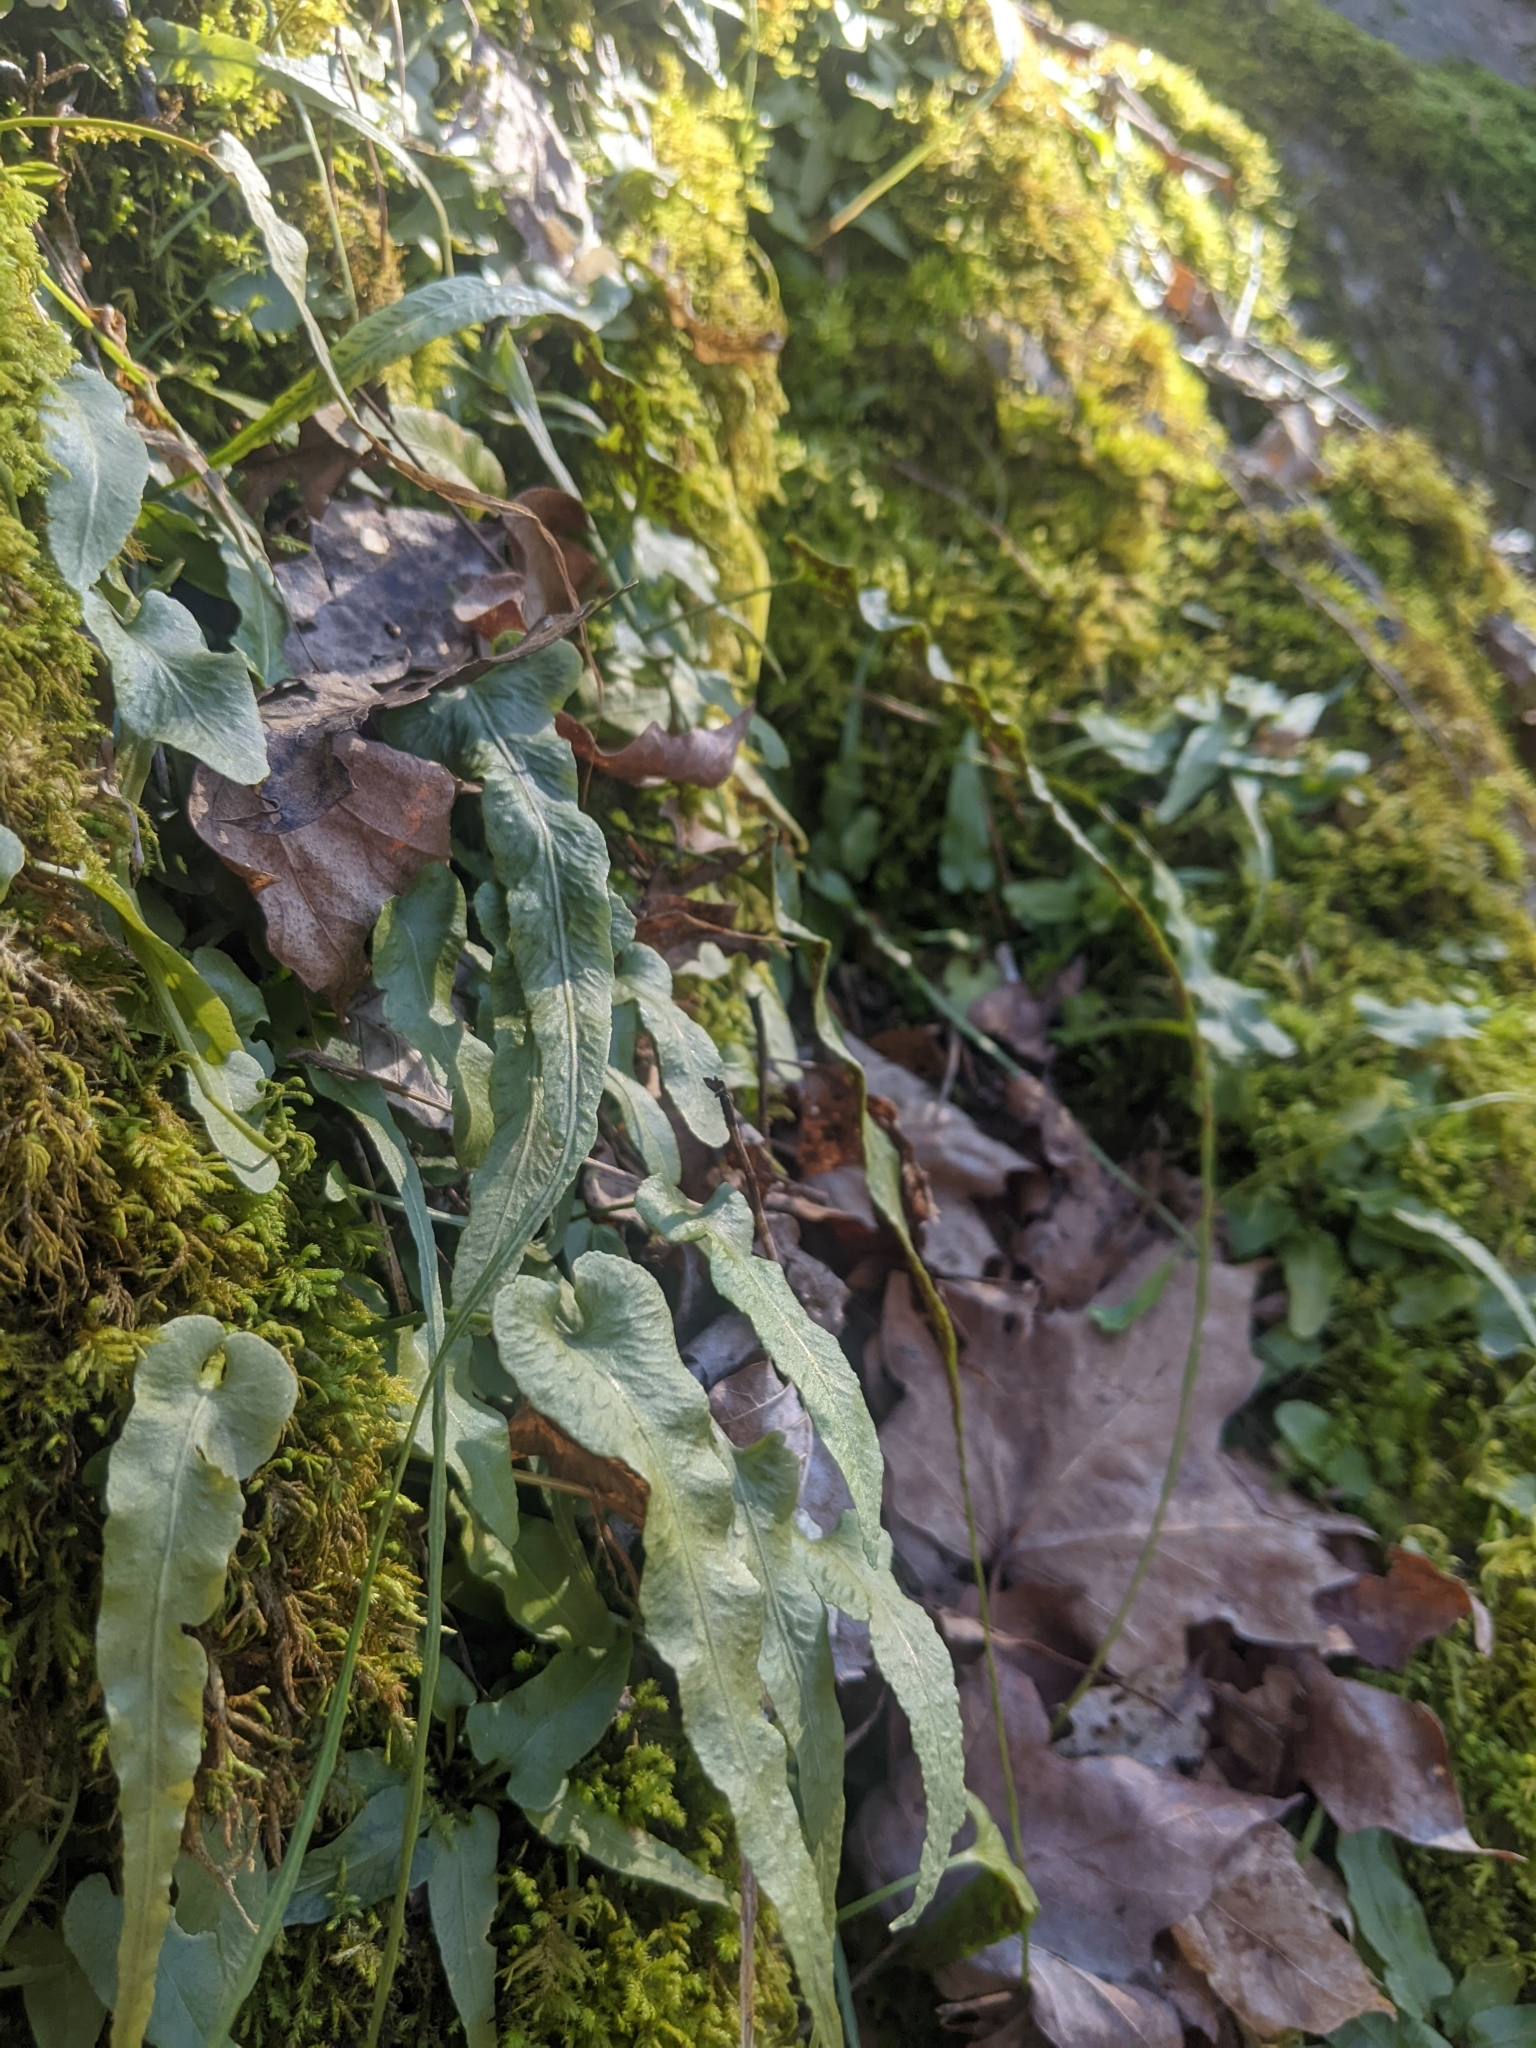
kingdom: Plantae
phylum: Tracheophyta
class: Polypodiopsida
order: Polypodiales
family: Aspleniaceae
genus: Asplenium
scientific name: Asplenium rhizophyllum
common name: Walking fern
